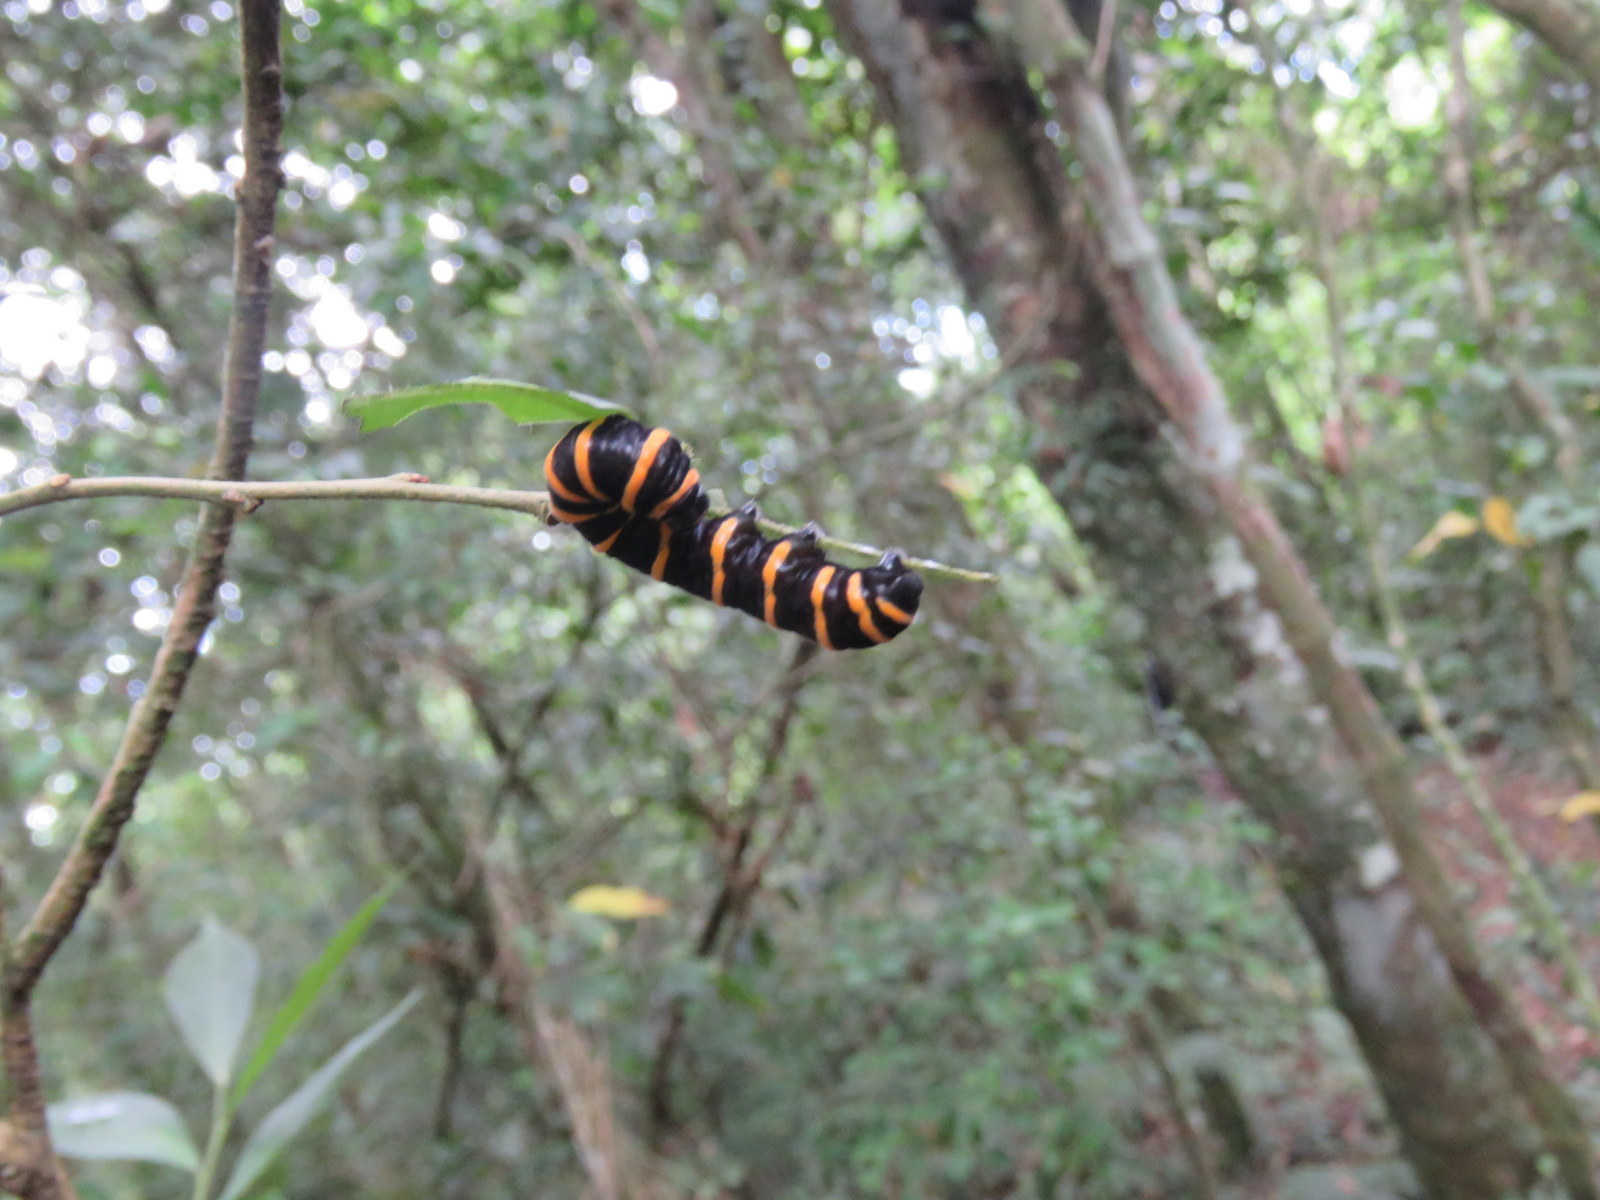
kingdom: Animalia
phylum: Arthropoda
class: Insecta
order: Lepidoptera
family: Nymphalidae
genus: Methona
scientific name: Methona themisto
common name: Themisto amberwing
